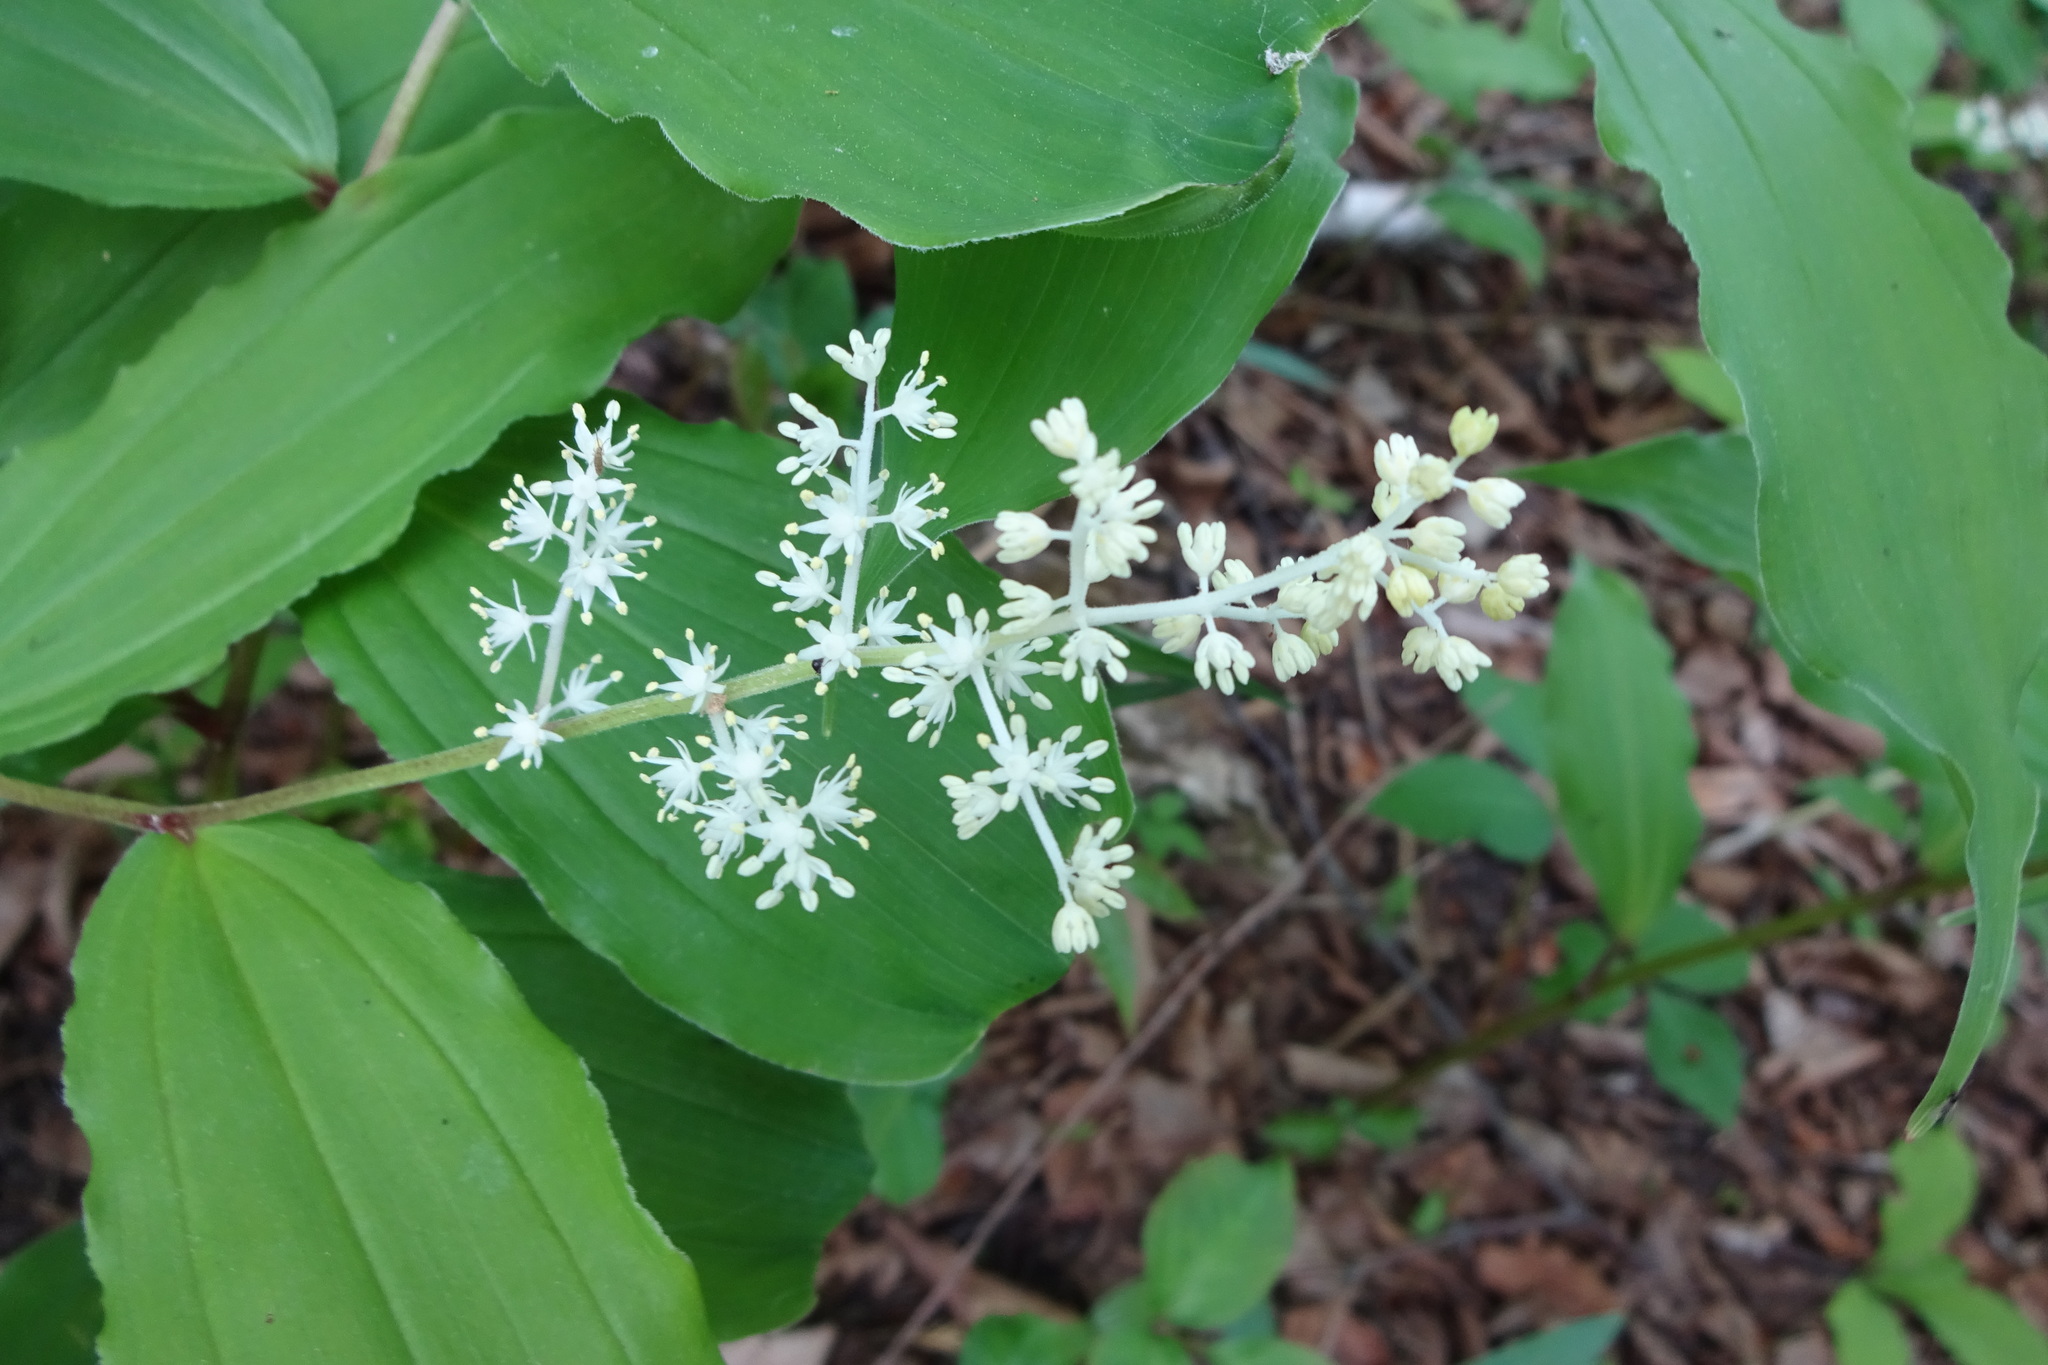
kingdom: Plantae
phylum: Tracheophyta
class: Liliopsida
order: Asparagales
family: Asparagaceae
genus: Maianthemum
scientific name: Maianthemum racemosum
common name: False spikenard
